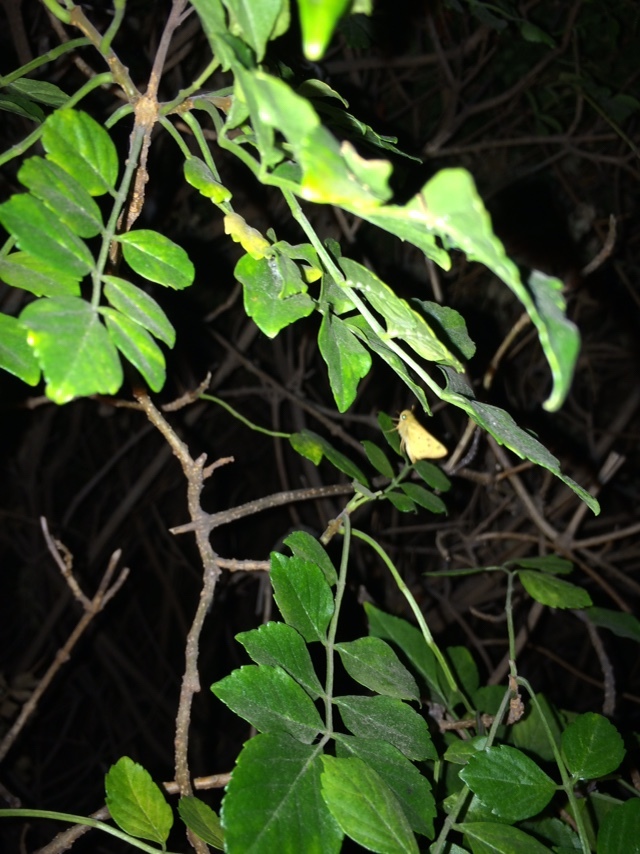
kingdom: Animalia
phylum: Arthropoda
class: Insecta
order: Lepidoptera
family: Hesperiidae
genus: Hylephila
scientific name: Hylephila phyleus
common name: Fiery skipper
